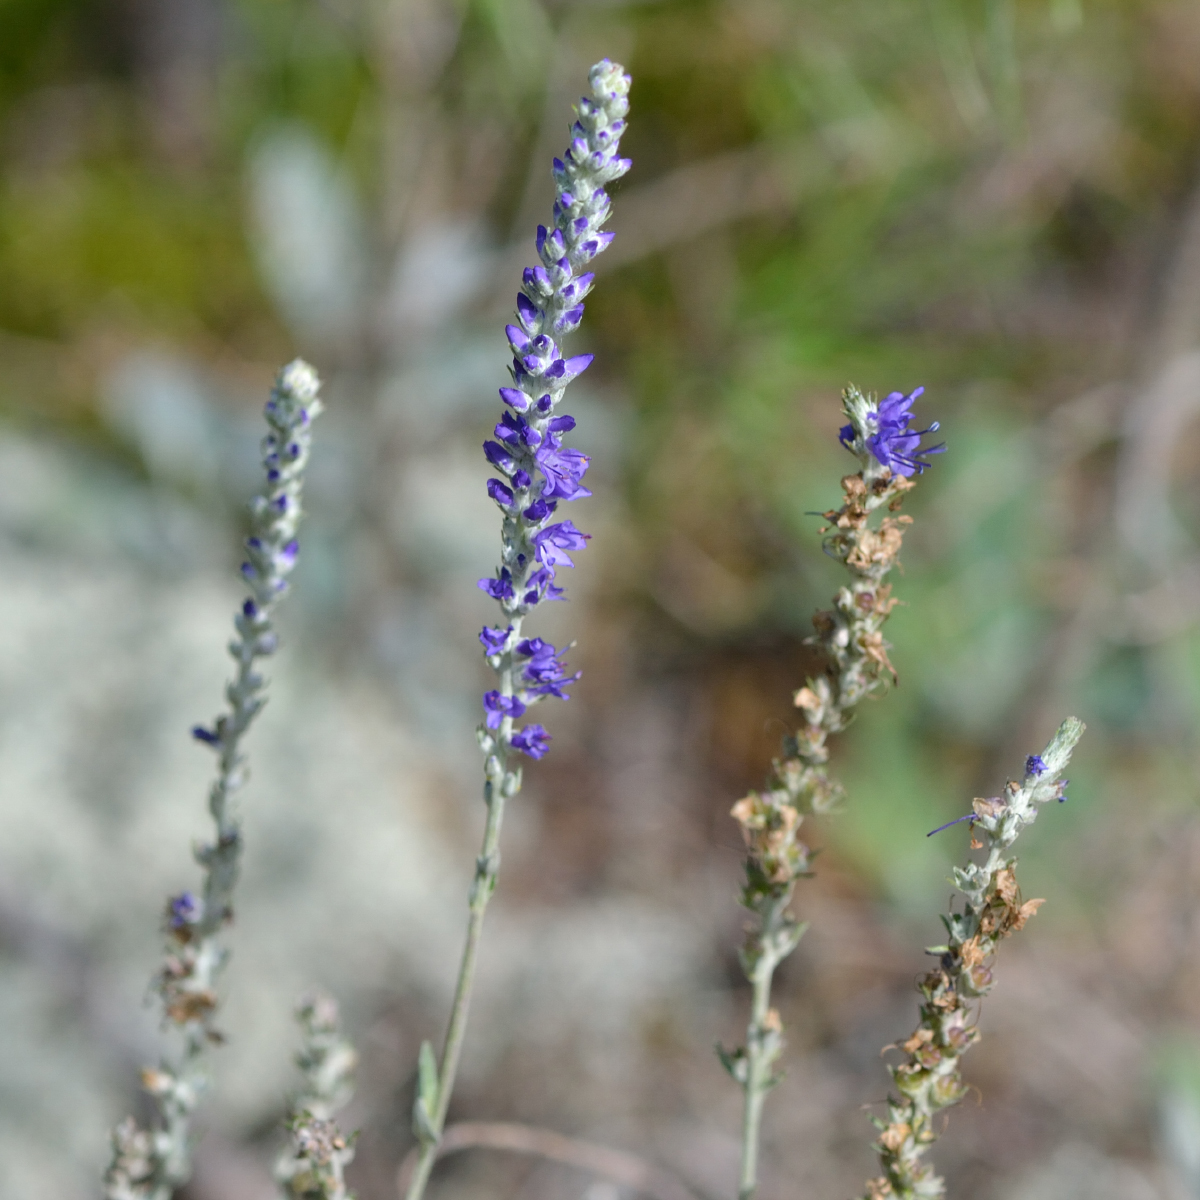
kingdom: Plantae
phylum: Tracheophyta
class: Magnoliopsida
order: Lamiales
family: Plantaginaceae
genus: Veronica
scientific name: Veronica incana
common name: Silver speedwell
